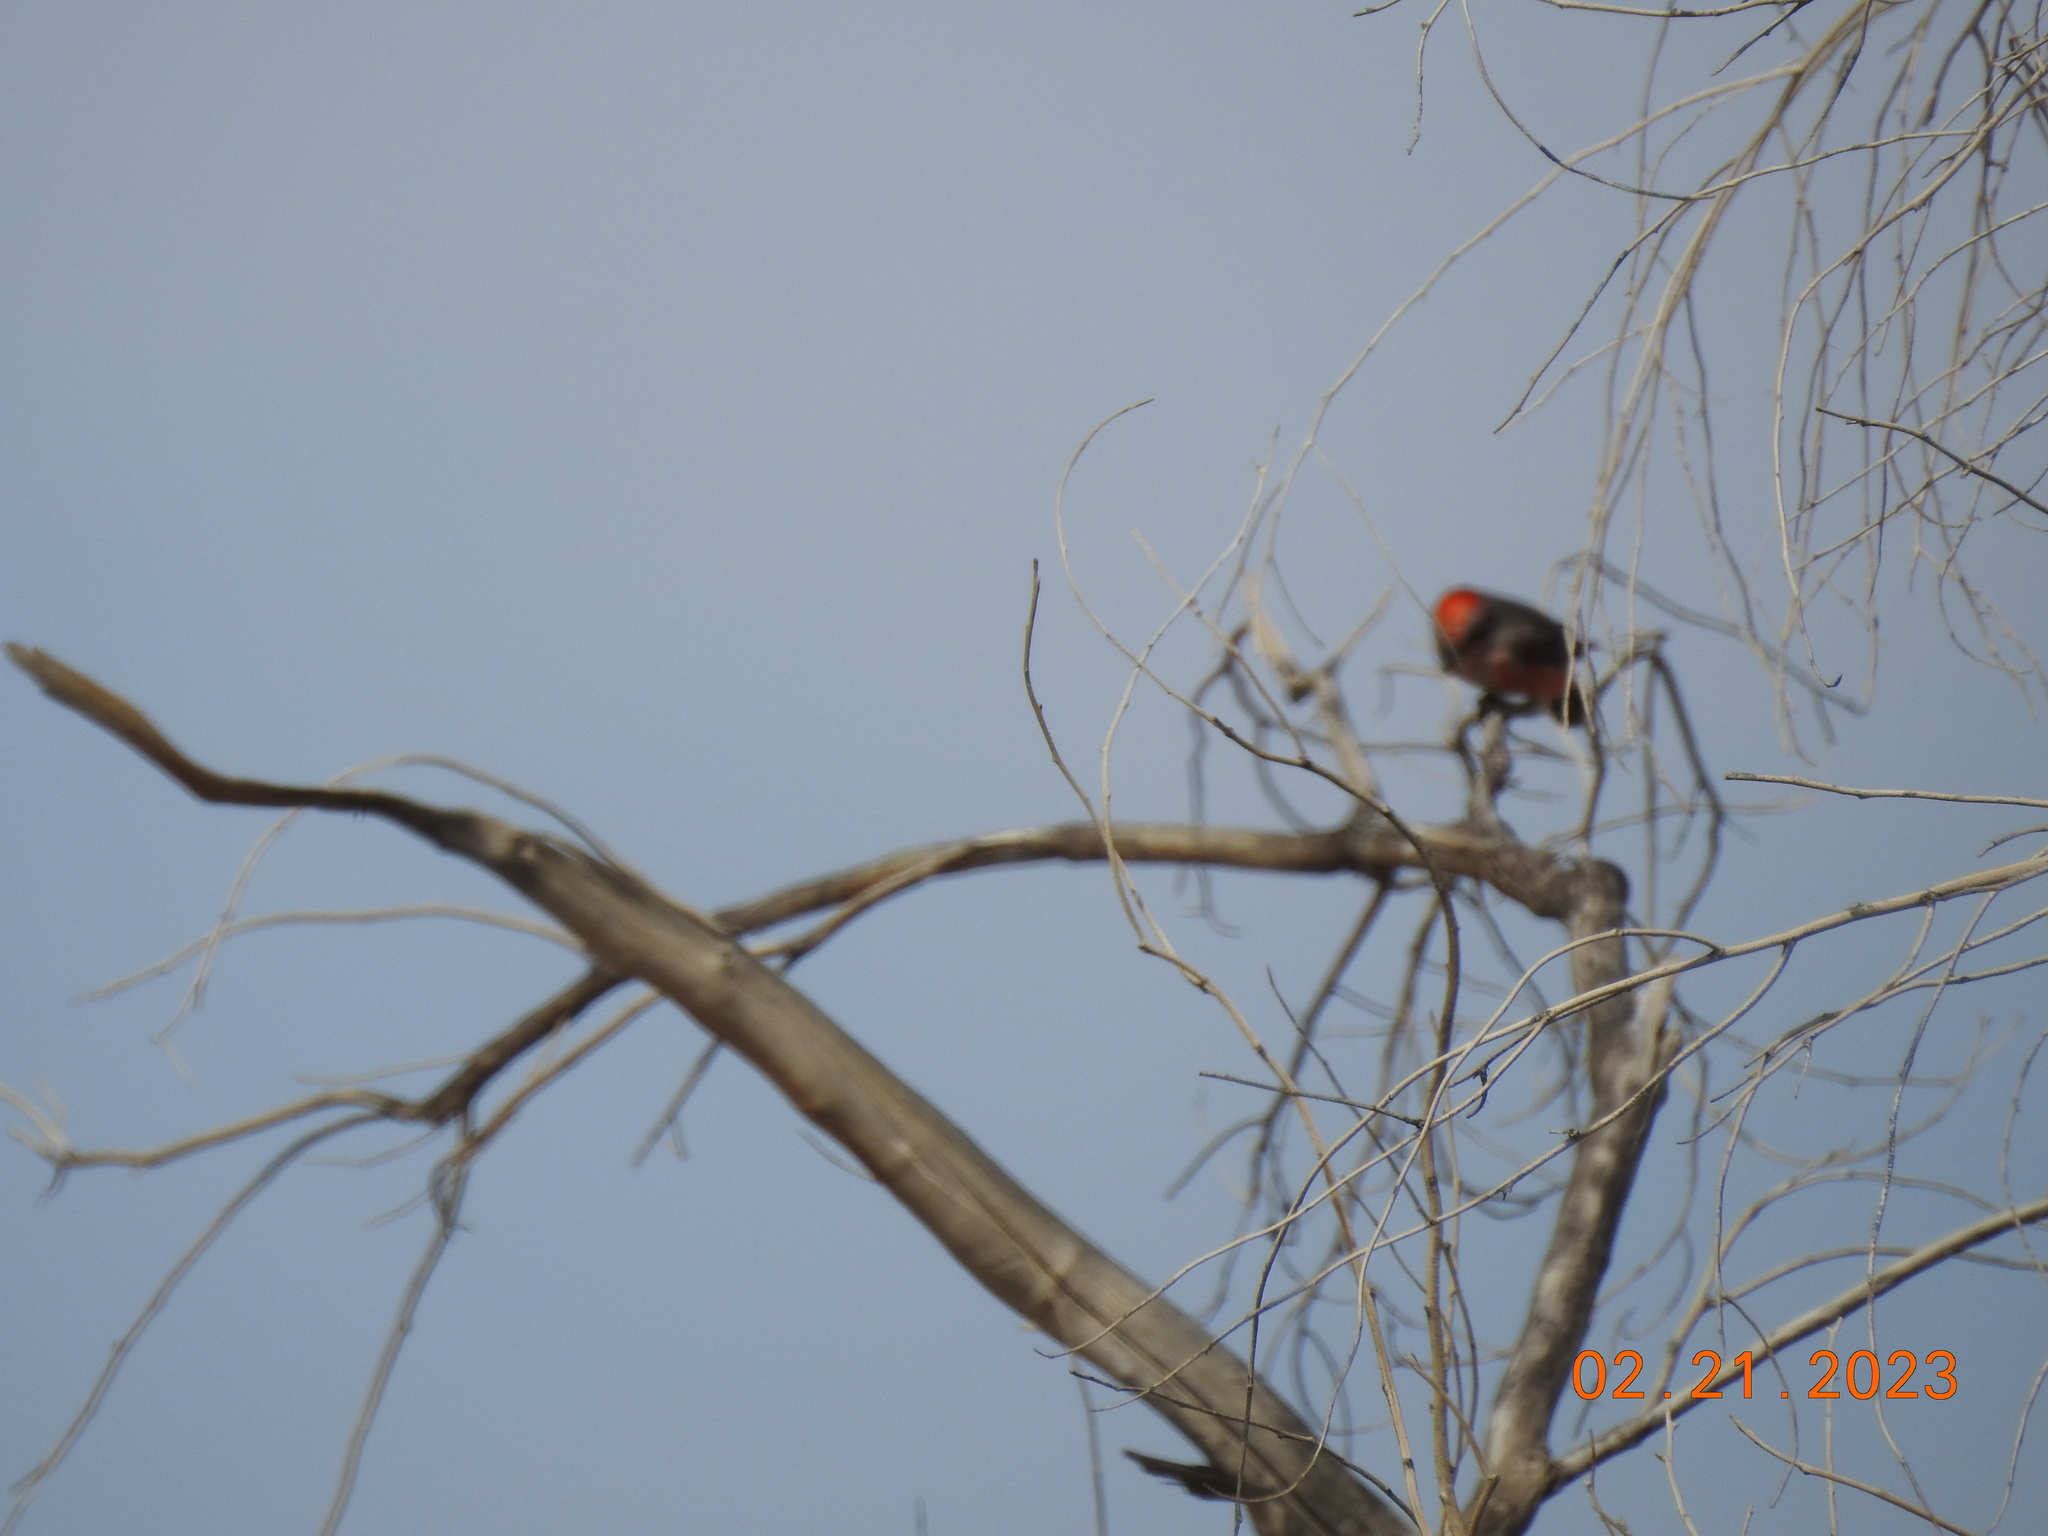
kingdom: Animalia
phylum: Chordata
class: Aves
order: Passeriformes
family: Tyrannidae
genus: Pyrocephalus
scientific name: Pyrocephalus rubinus
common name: Vermilion flycatcher
